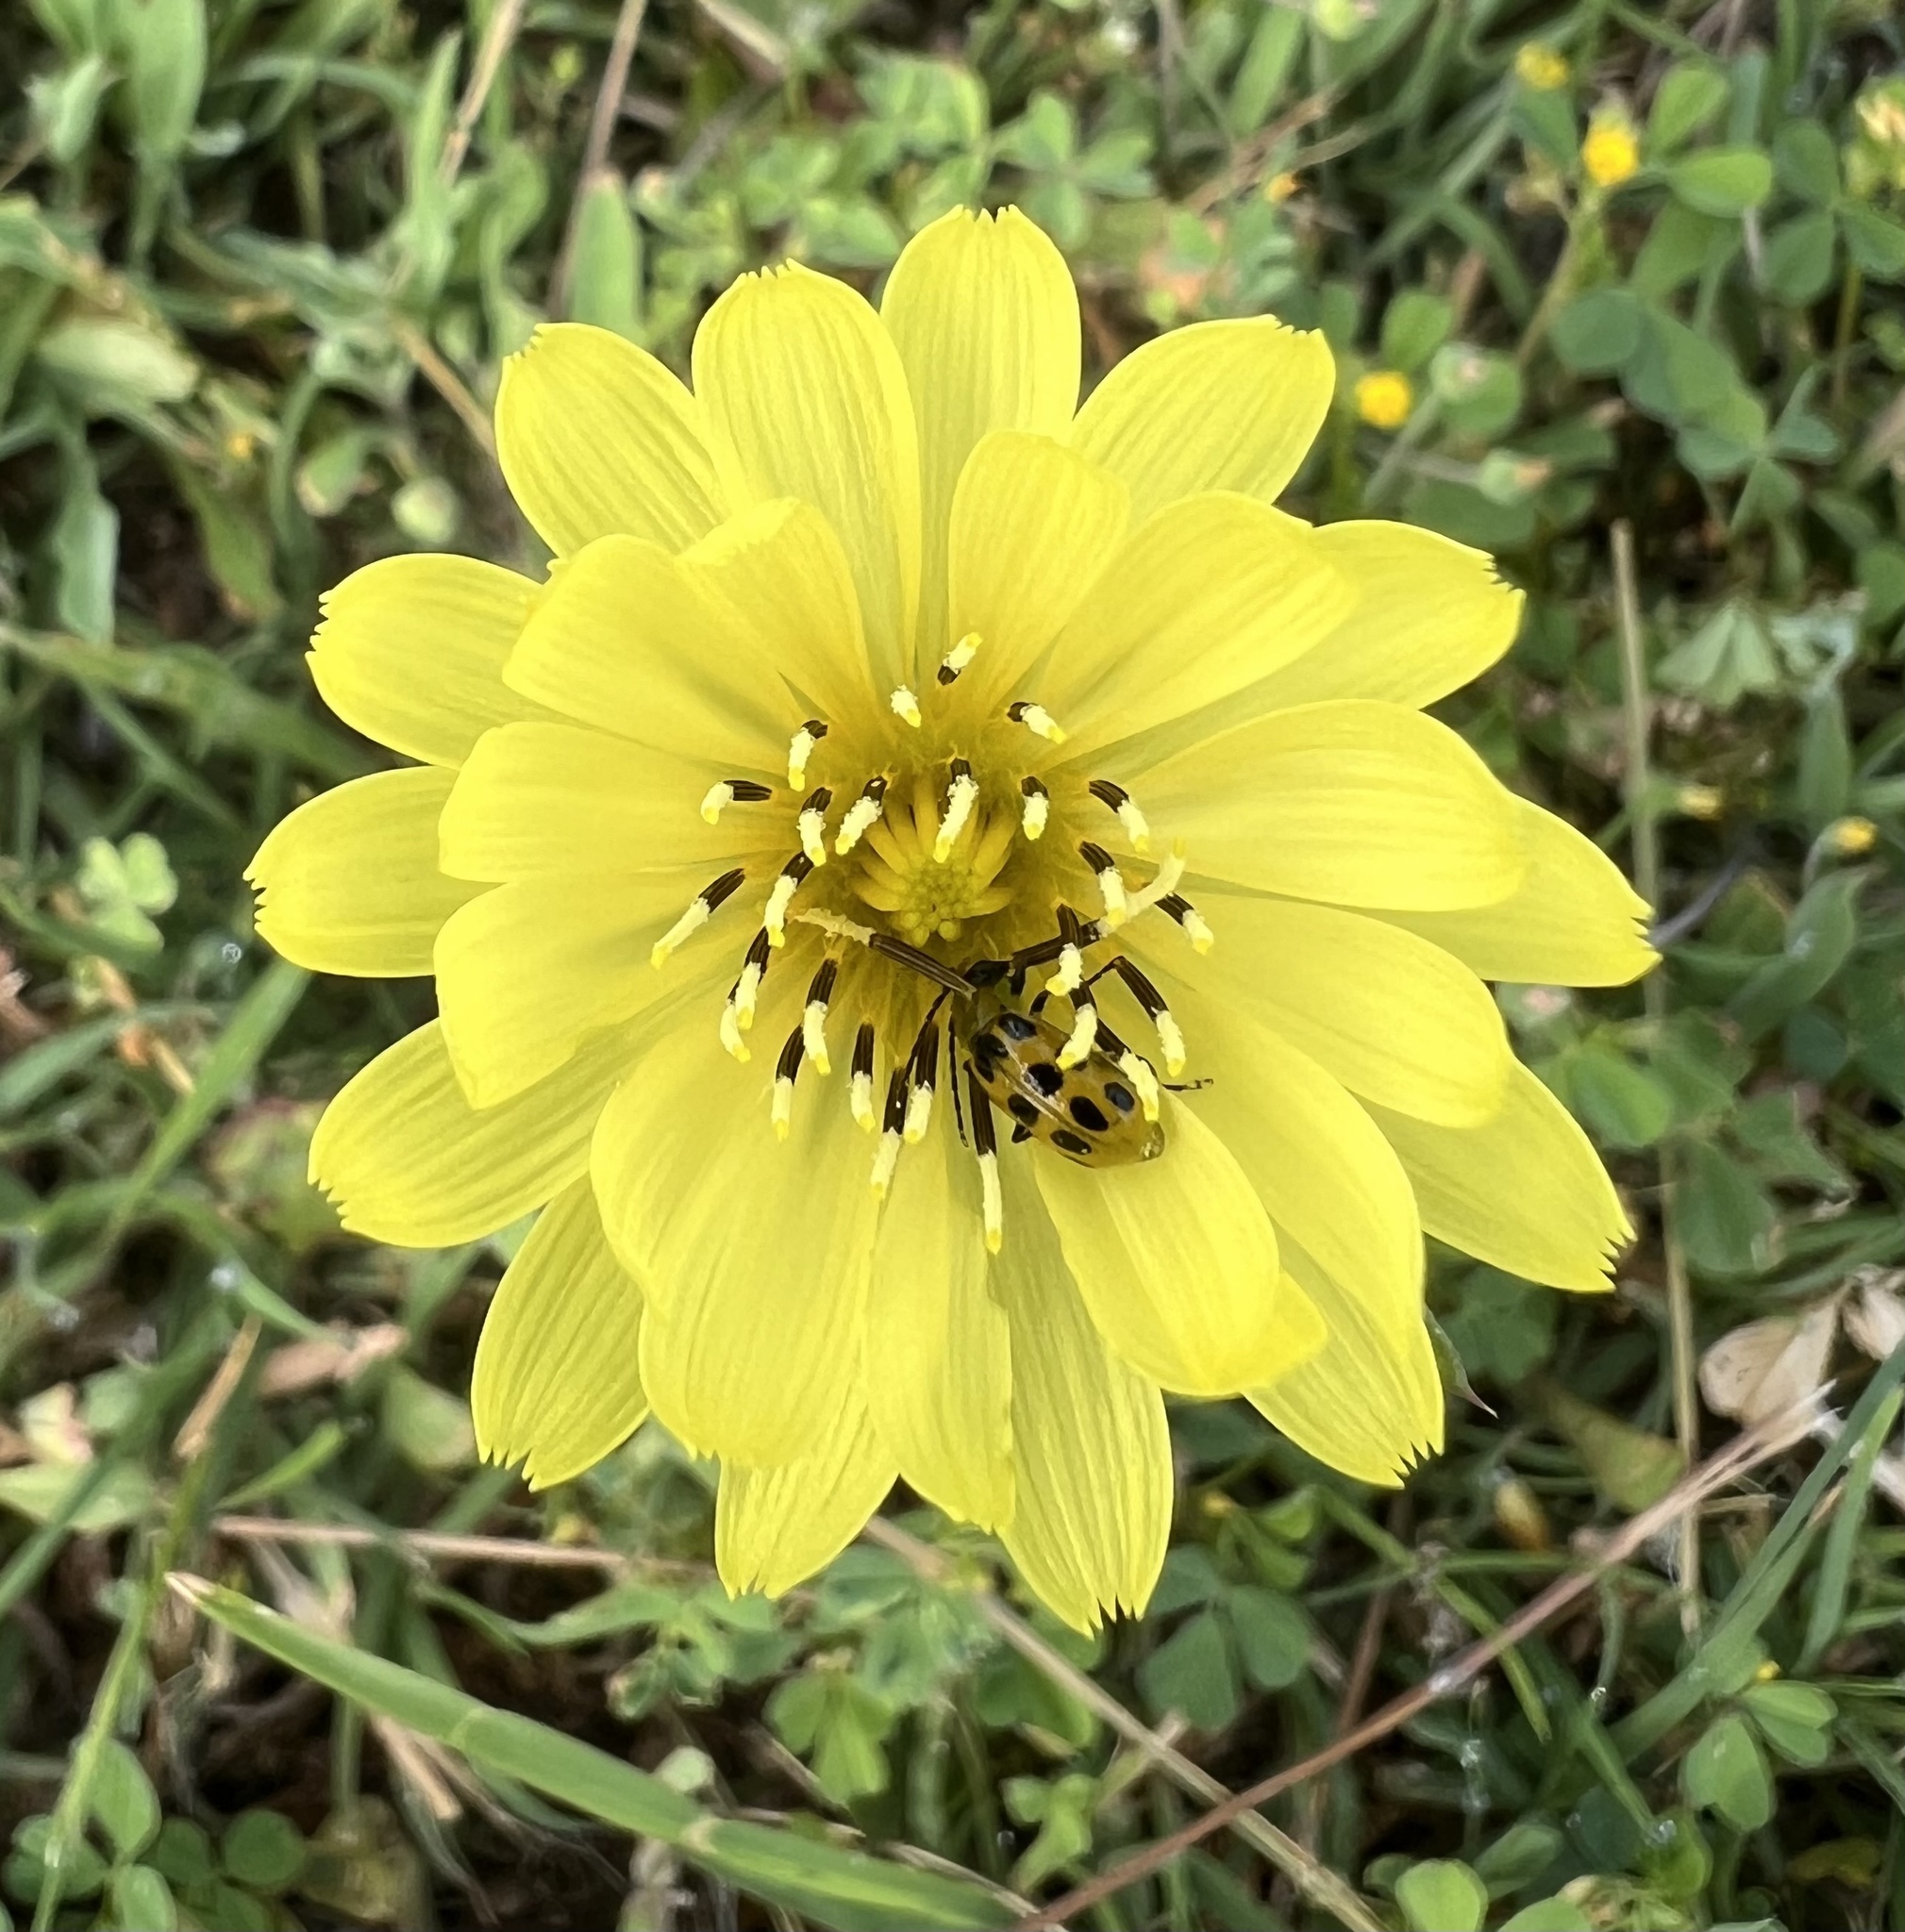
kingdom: Animalia
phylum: Arthropoda
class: Insecta
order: Coleoptera
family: Chrysomelidae
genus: Diabrotica
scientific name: Diabrotica undecimpunctata
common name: Spotted cucumber beetle
